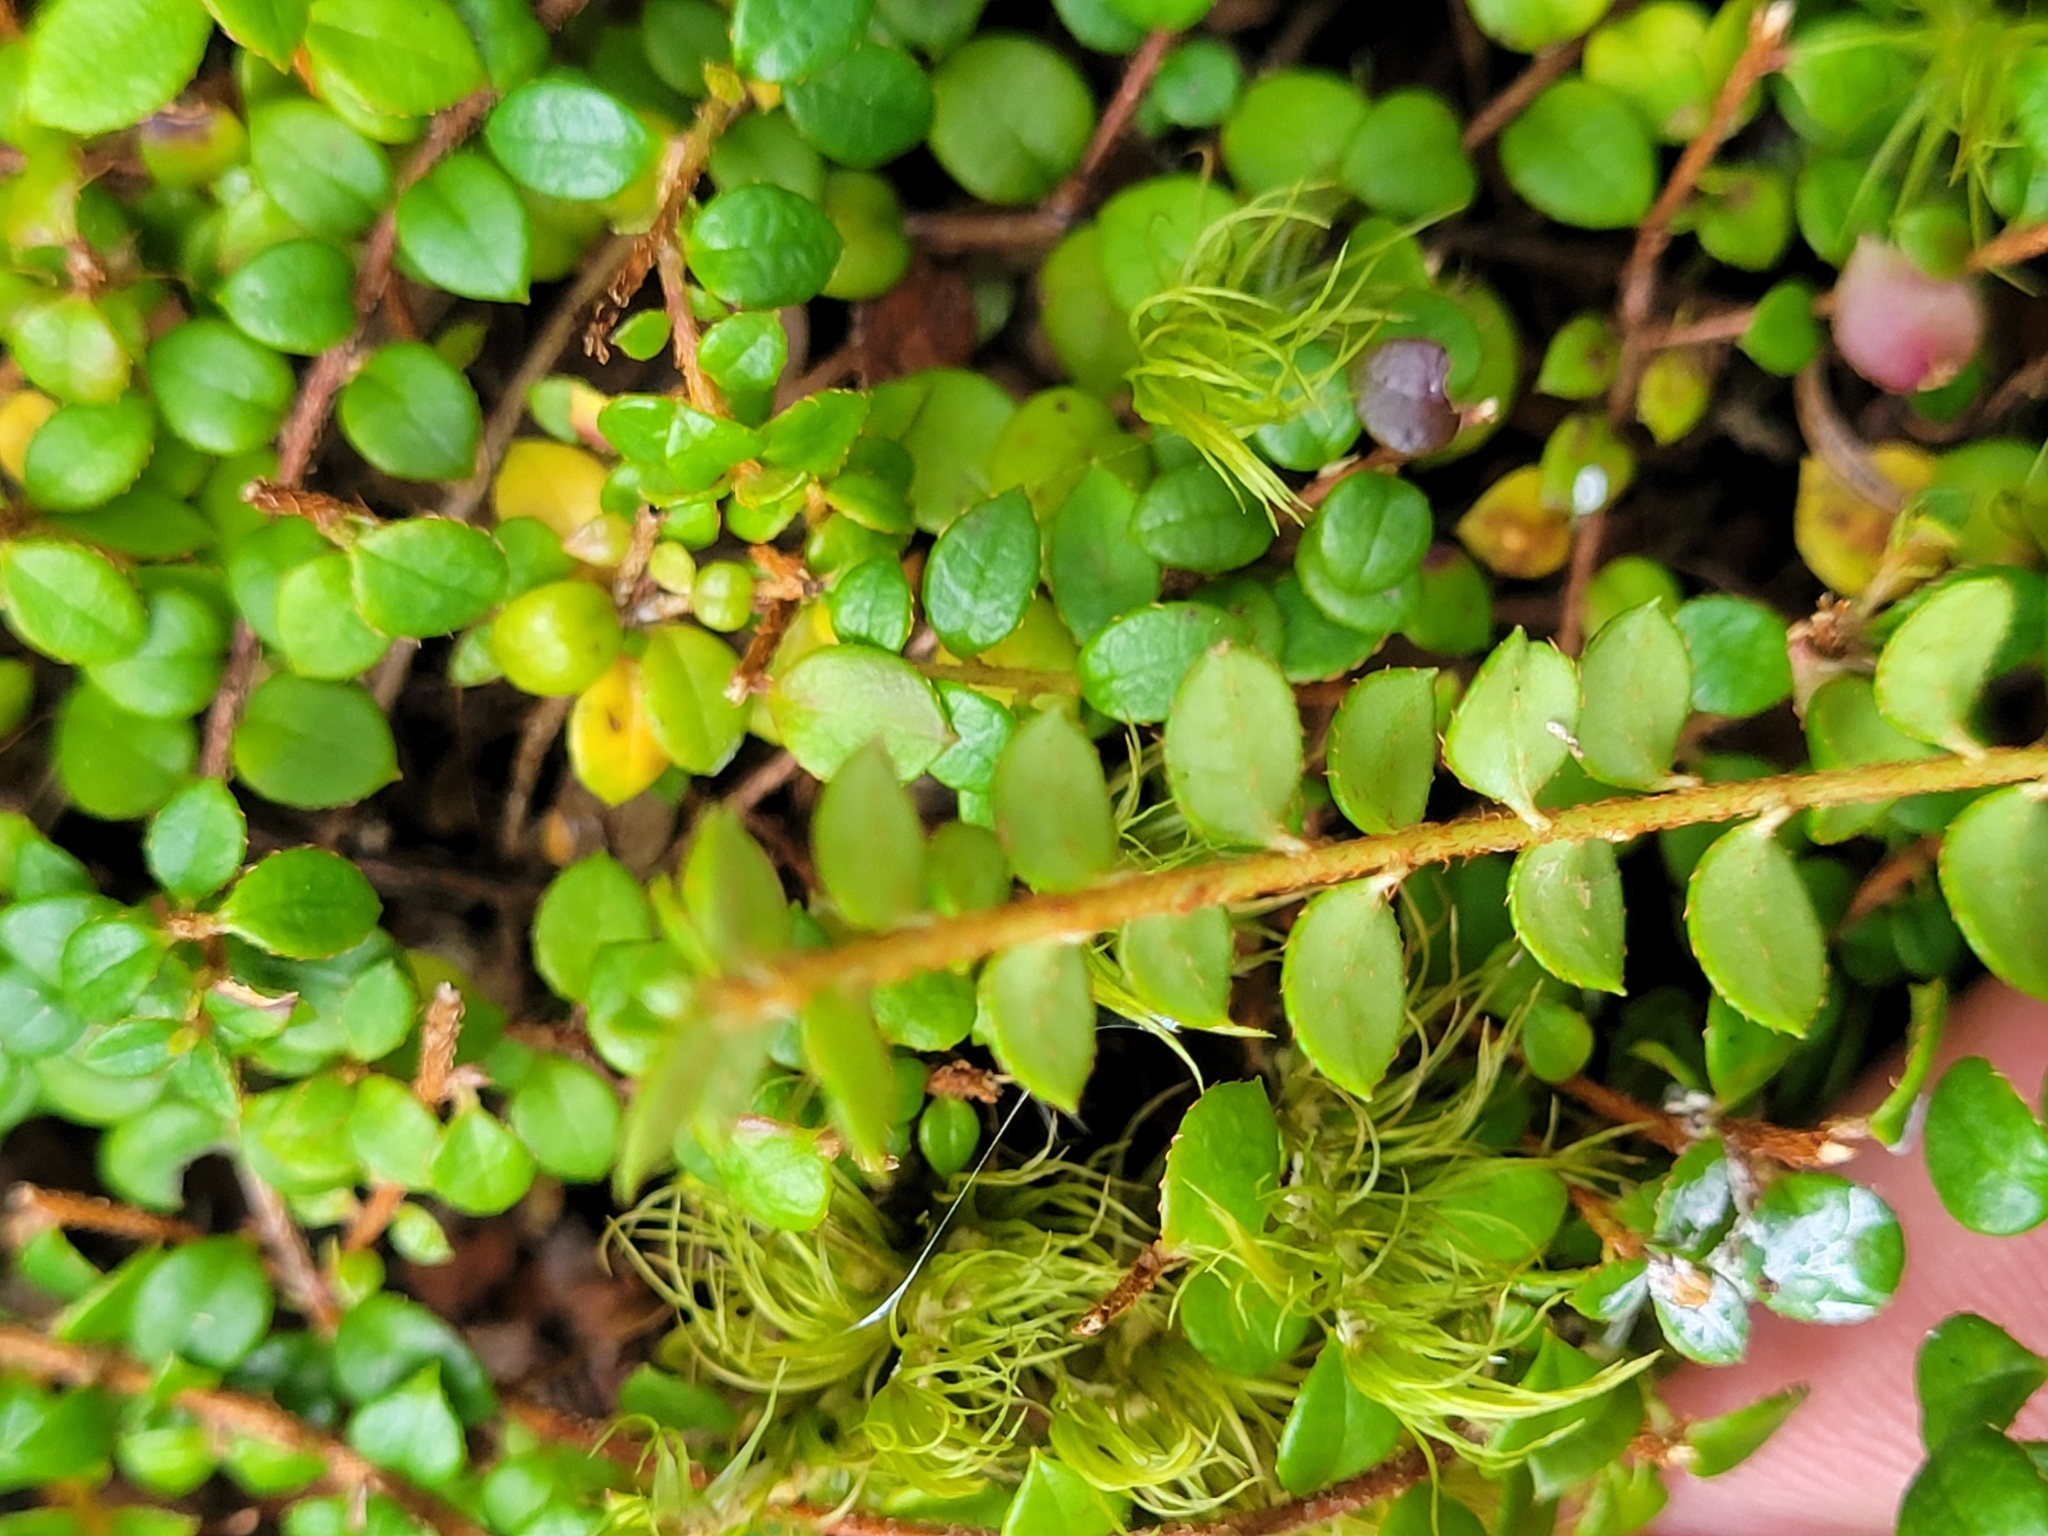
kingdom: Plantae
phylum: Tracheophyta
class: Magnoliopsida
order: Ericales
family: Ericaceae
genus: Gaultheria
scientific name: Gaultheria hispidula
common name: Cancer wintergreen
